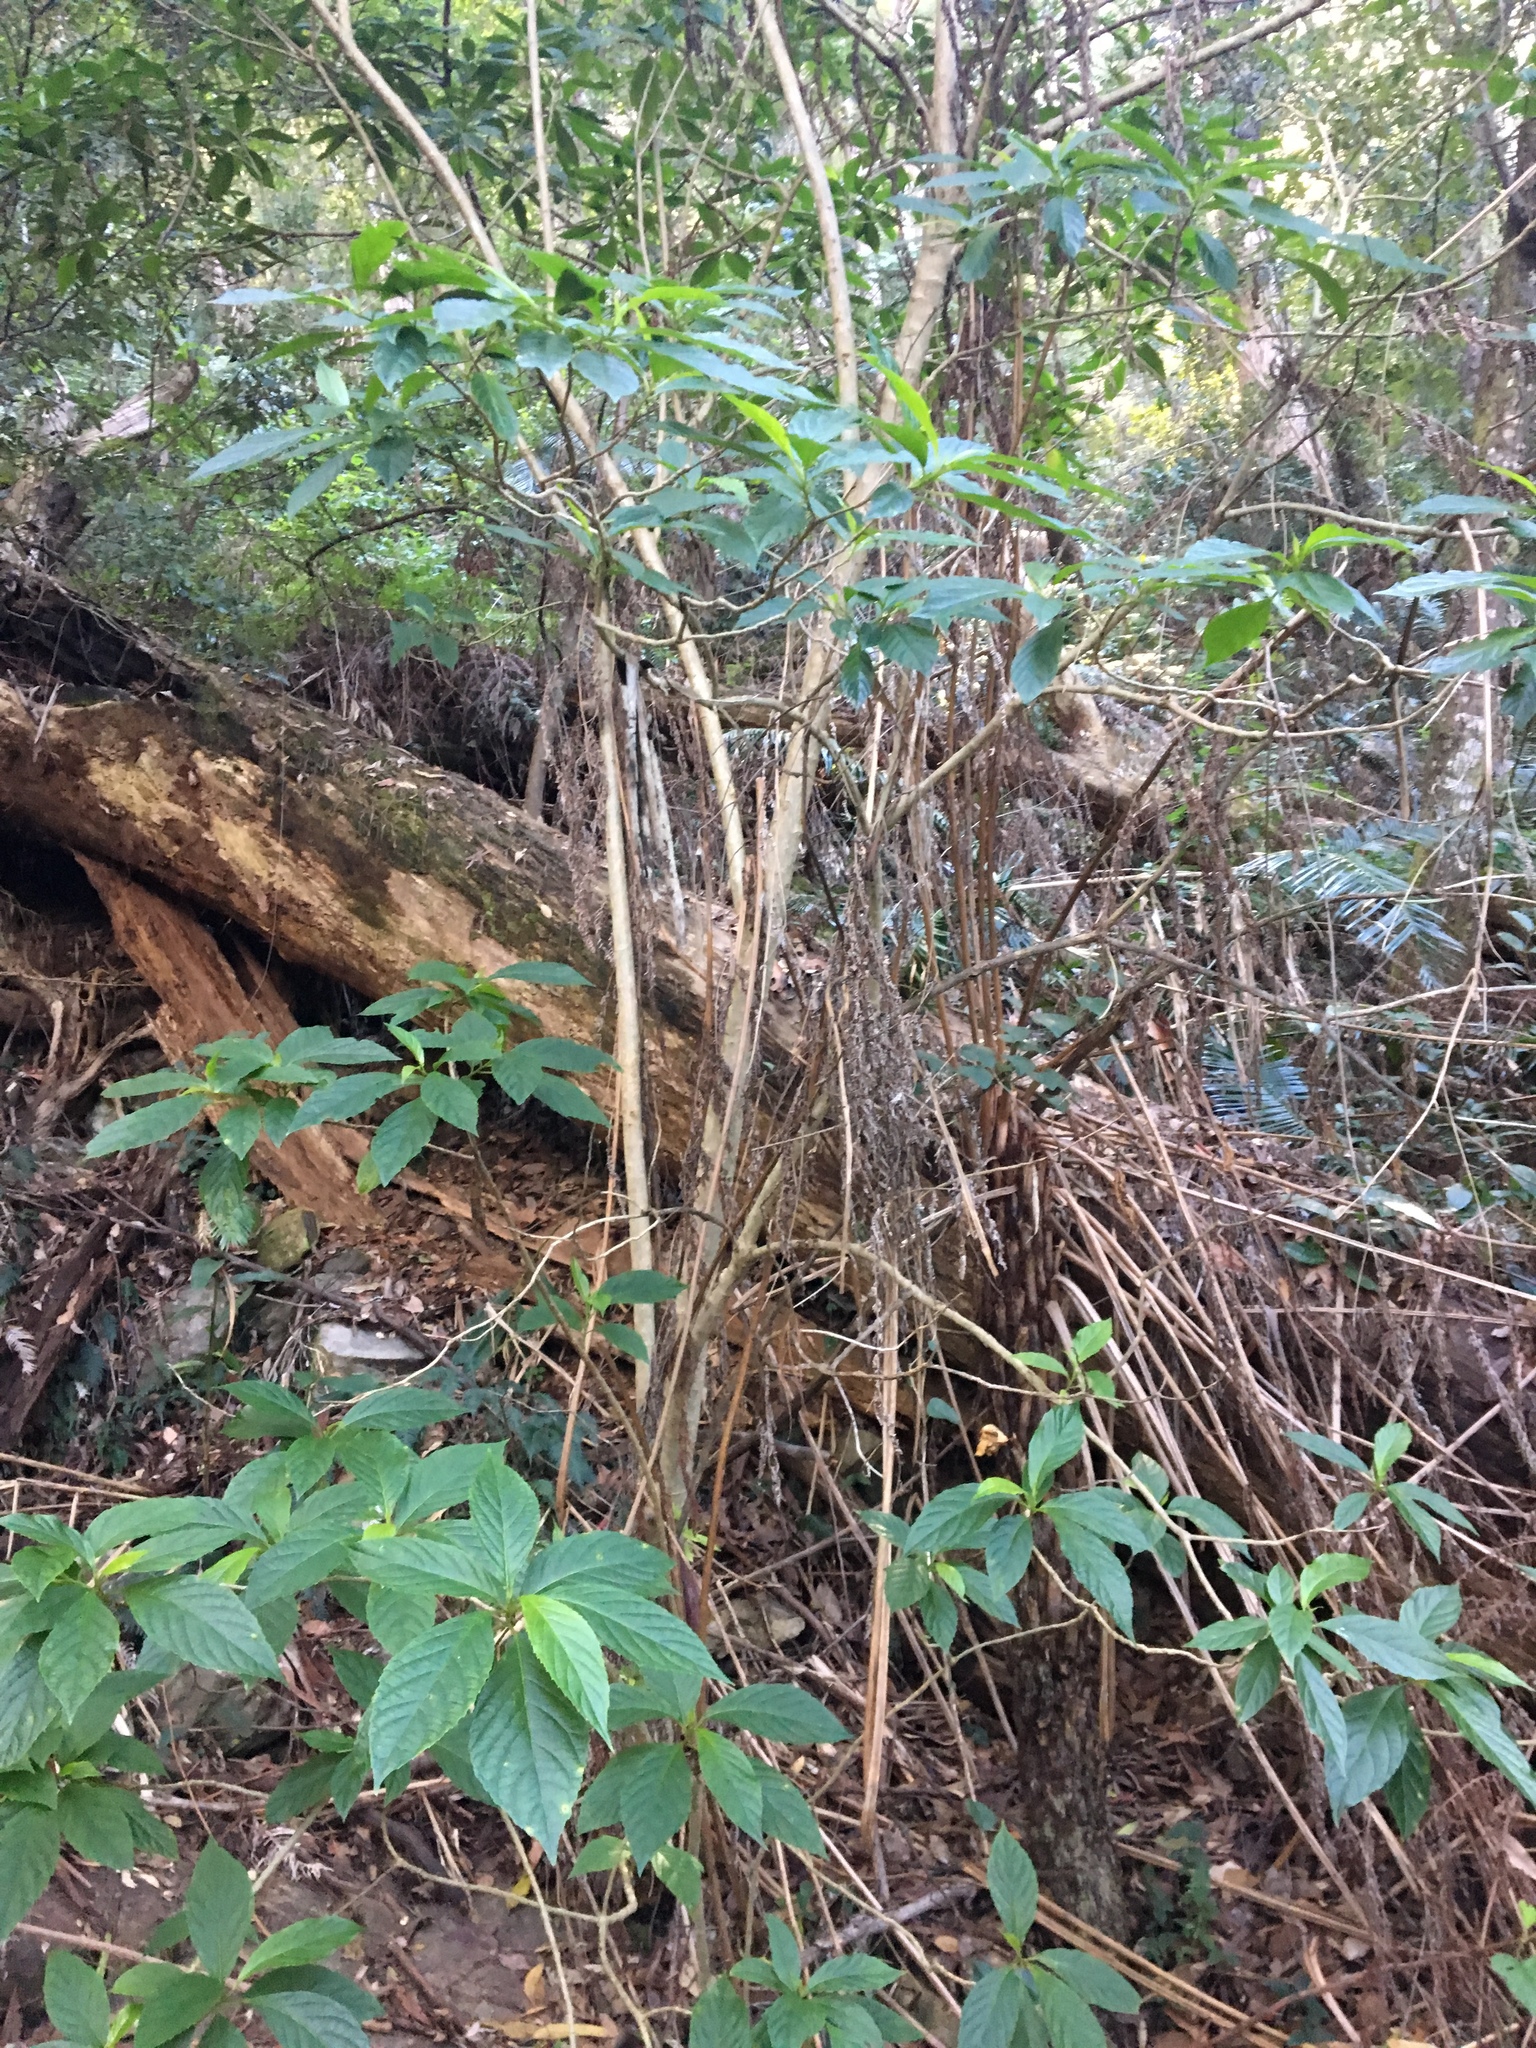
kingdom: Plantae
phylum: Tracheophyta
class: Magnoliopsida
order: Asterales
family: Rousseaceae
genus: Abrophyllum
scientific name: Abrophyllum ornans
